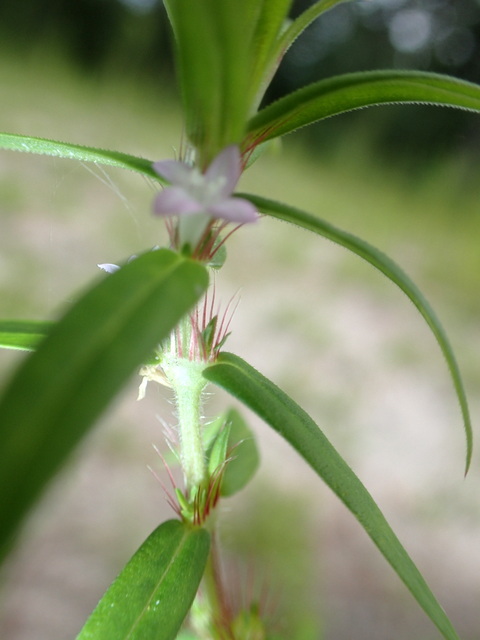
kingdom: Plantae
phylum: Tracheophyta
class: Magnoliopsida
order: Gentianales
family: Rubiaceae
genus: Hexasepalum
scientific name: Hexasepalum teres
